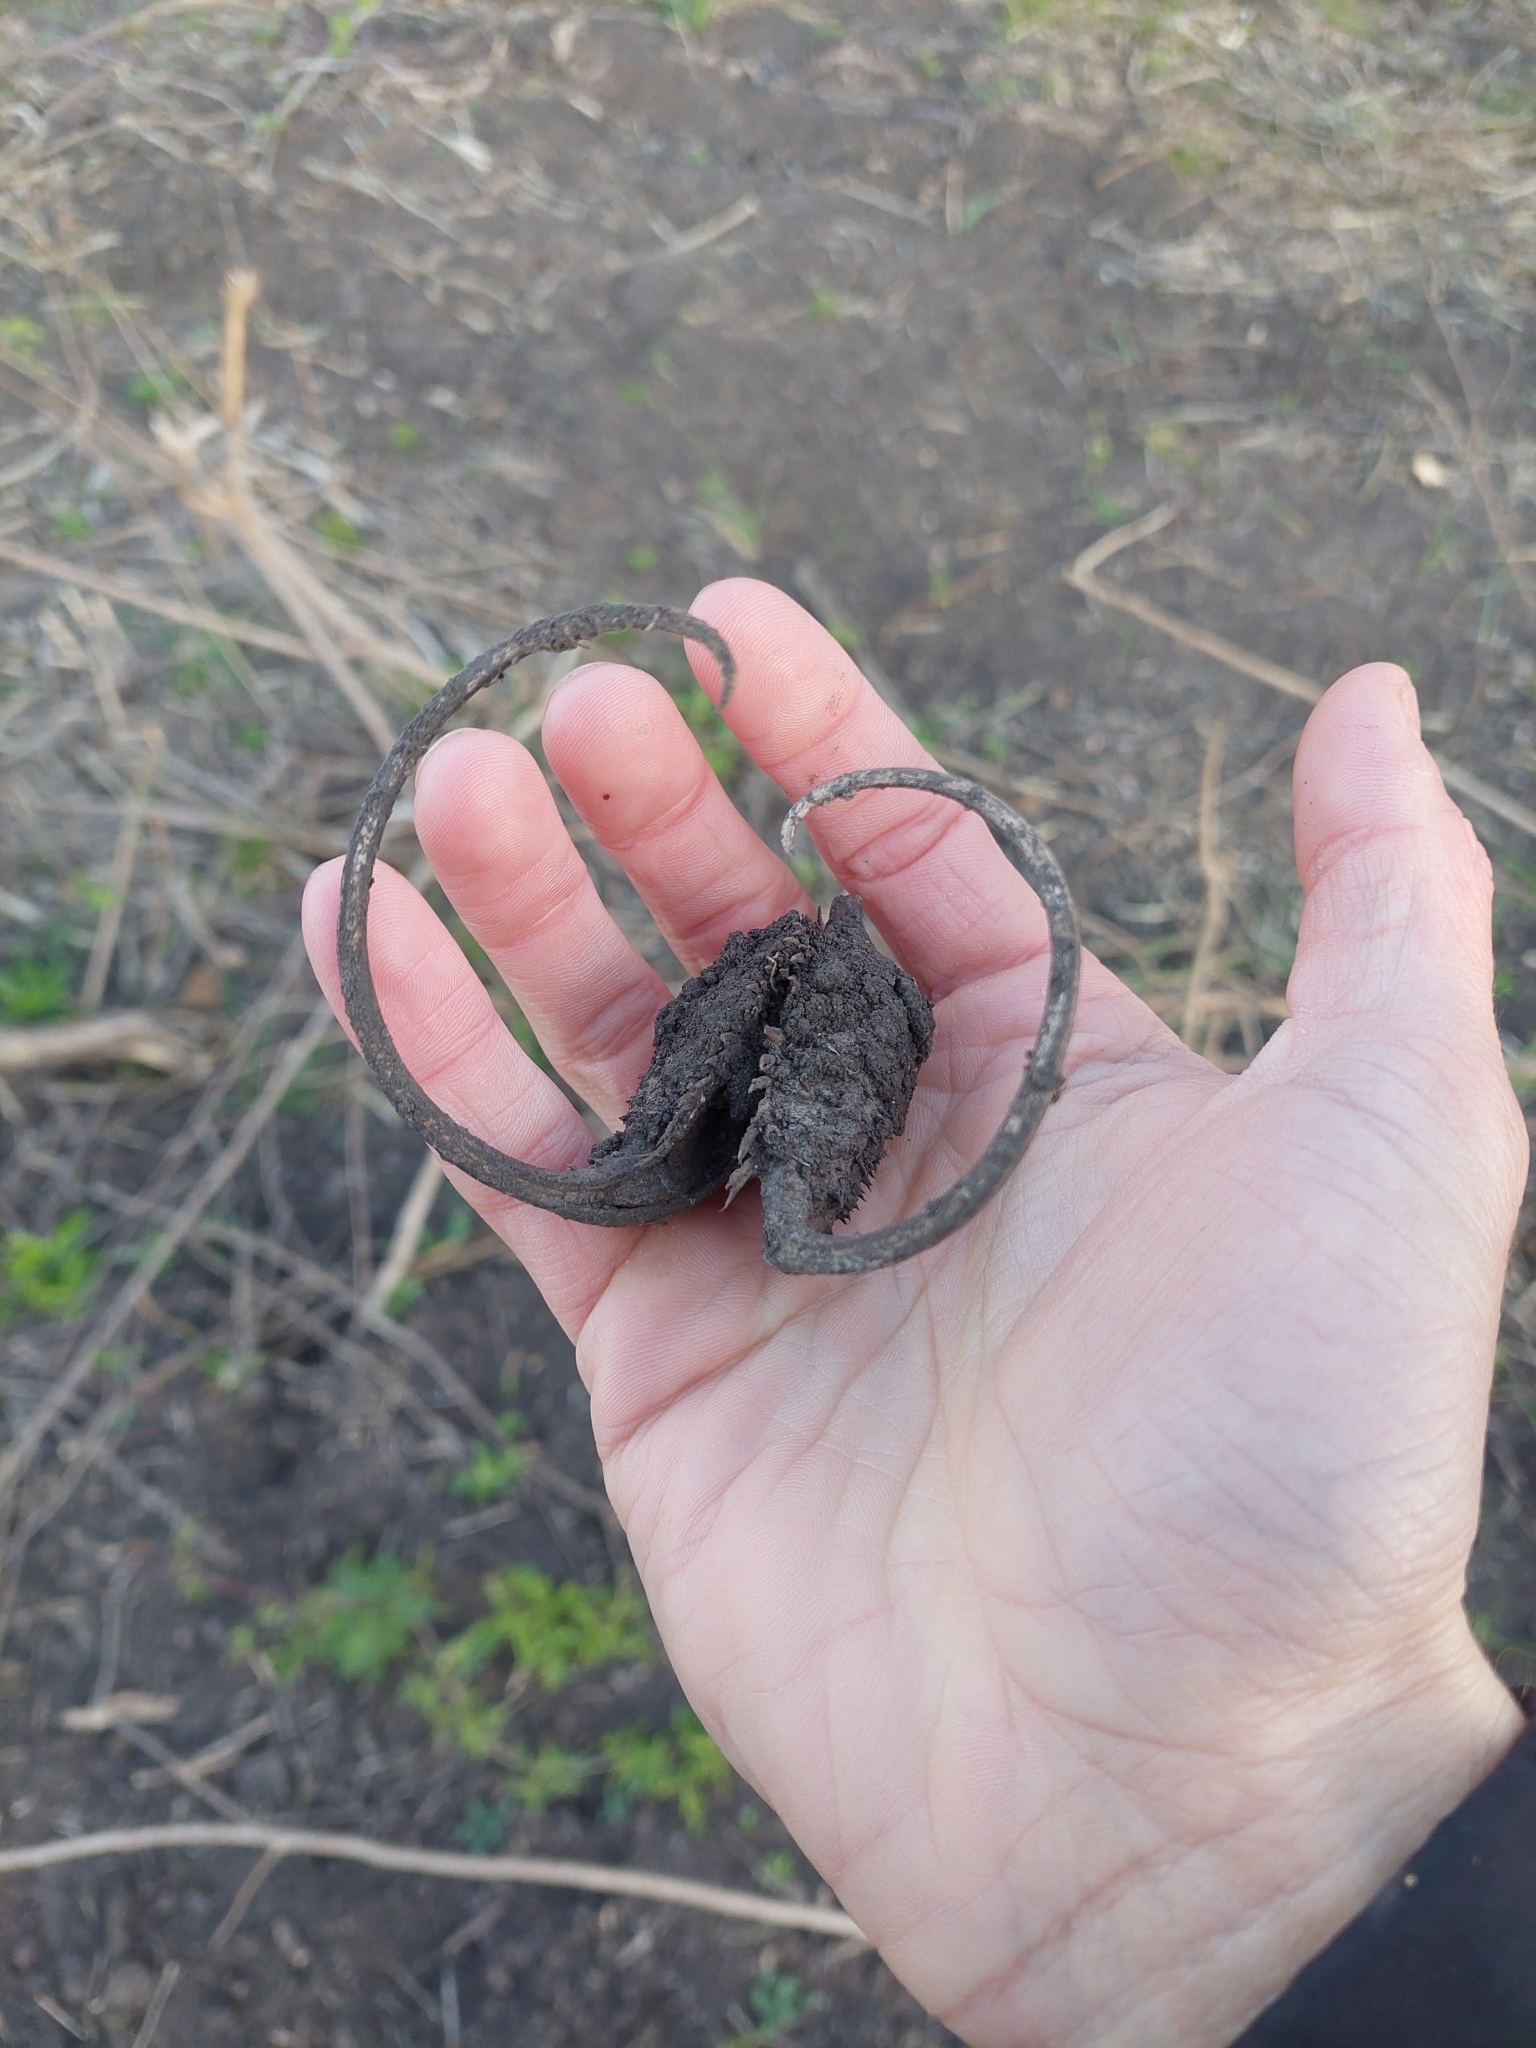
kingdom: Plantae
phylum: Tracheophyta
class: Magnoliopsida
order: Lamiales
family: Martyniaceae
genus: Ibicella
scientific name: Ibicella lutea
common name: Yellow unicorn-plant
